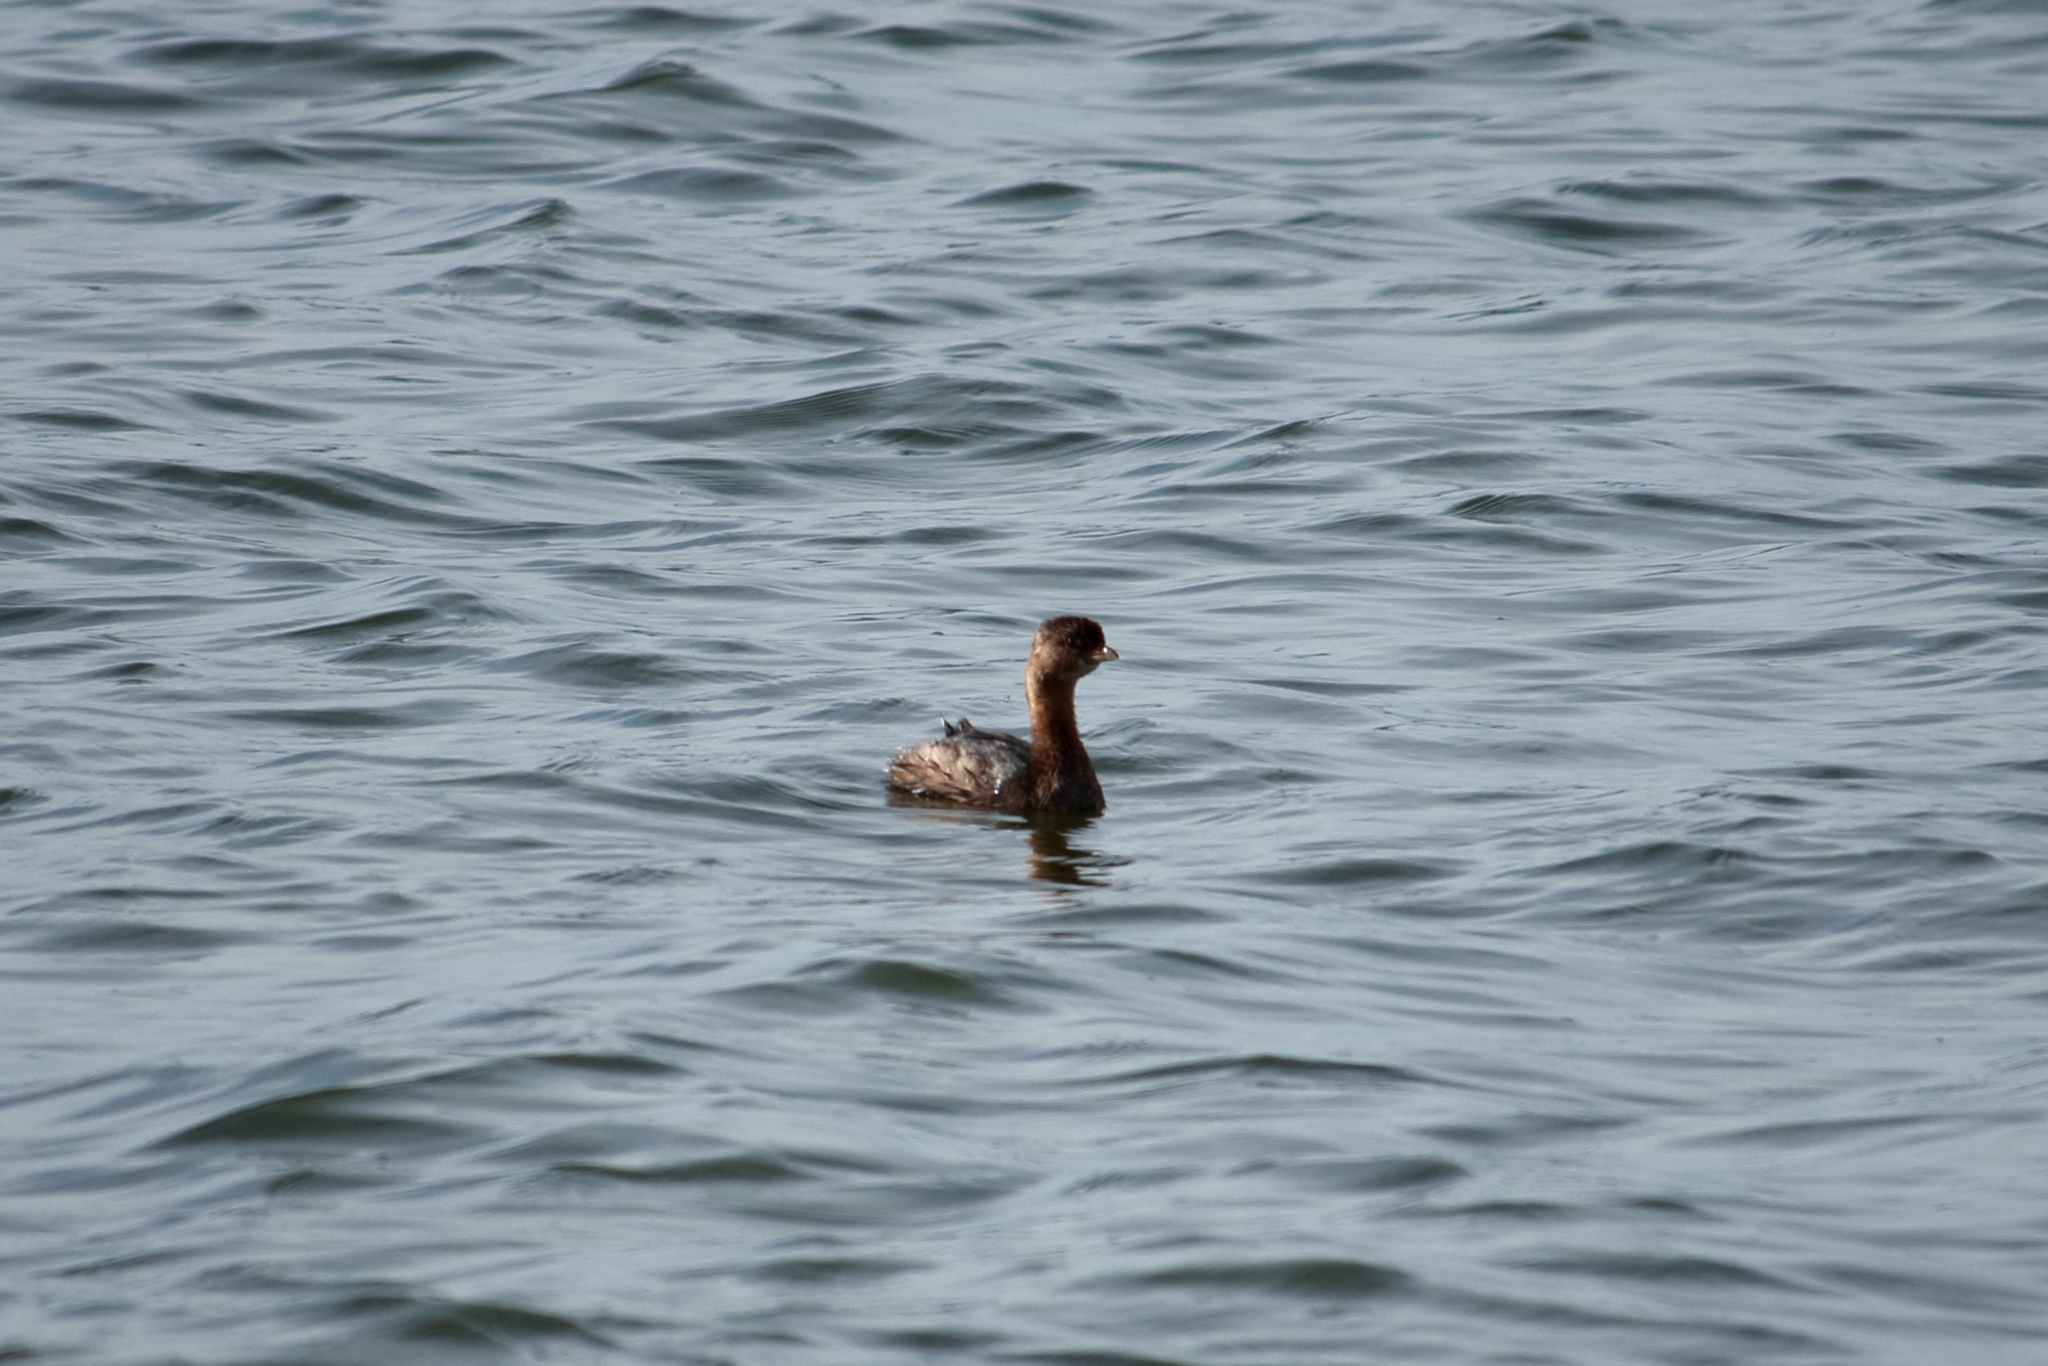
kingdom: Animalia
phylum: Chordata
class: Aves
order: Podicipediformes
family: Podicipedidae
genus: Podilymbus
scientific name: Podilymbus podiceps
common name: Pied-billed grebe
